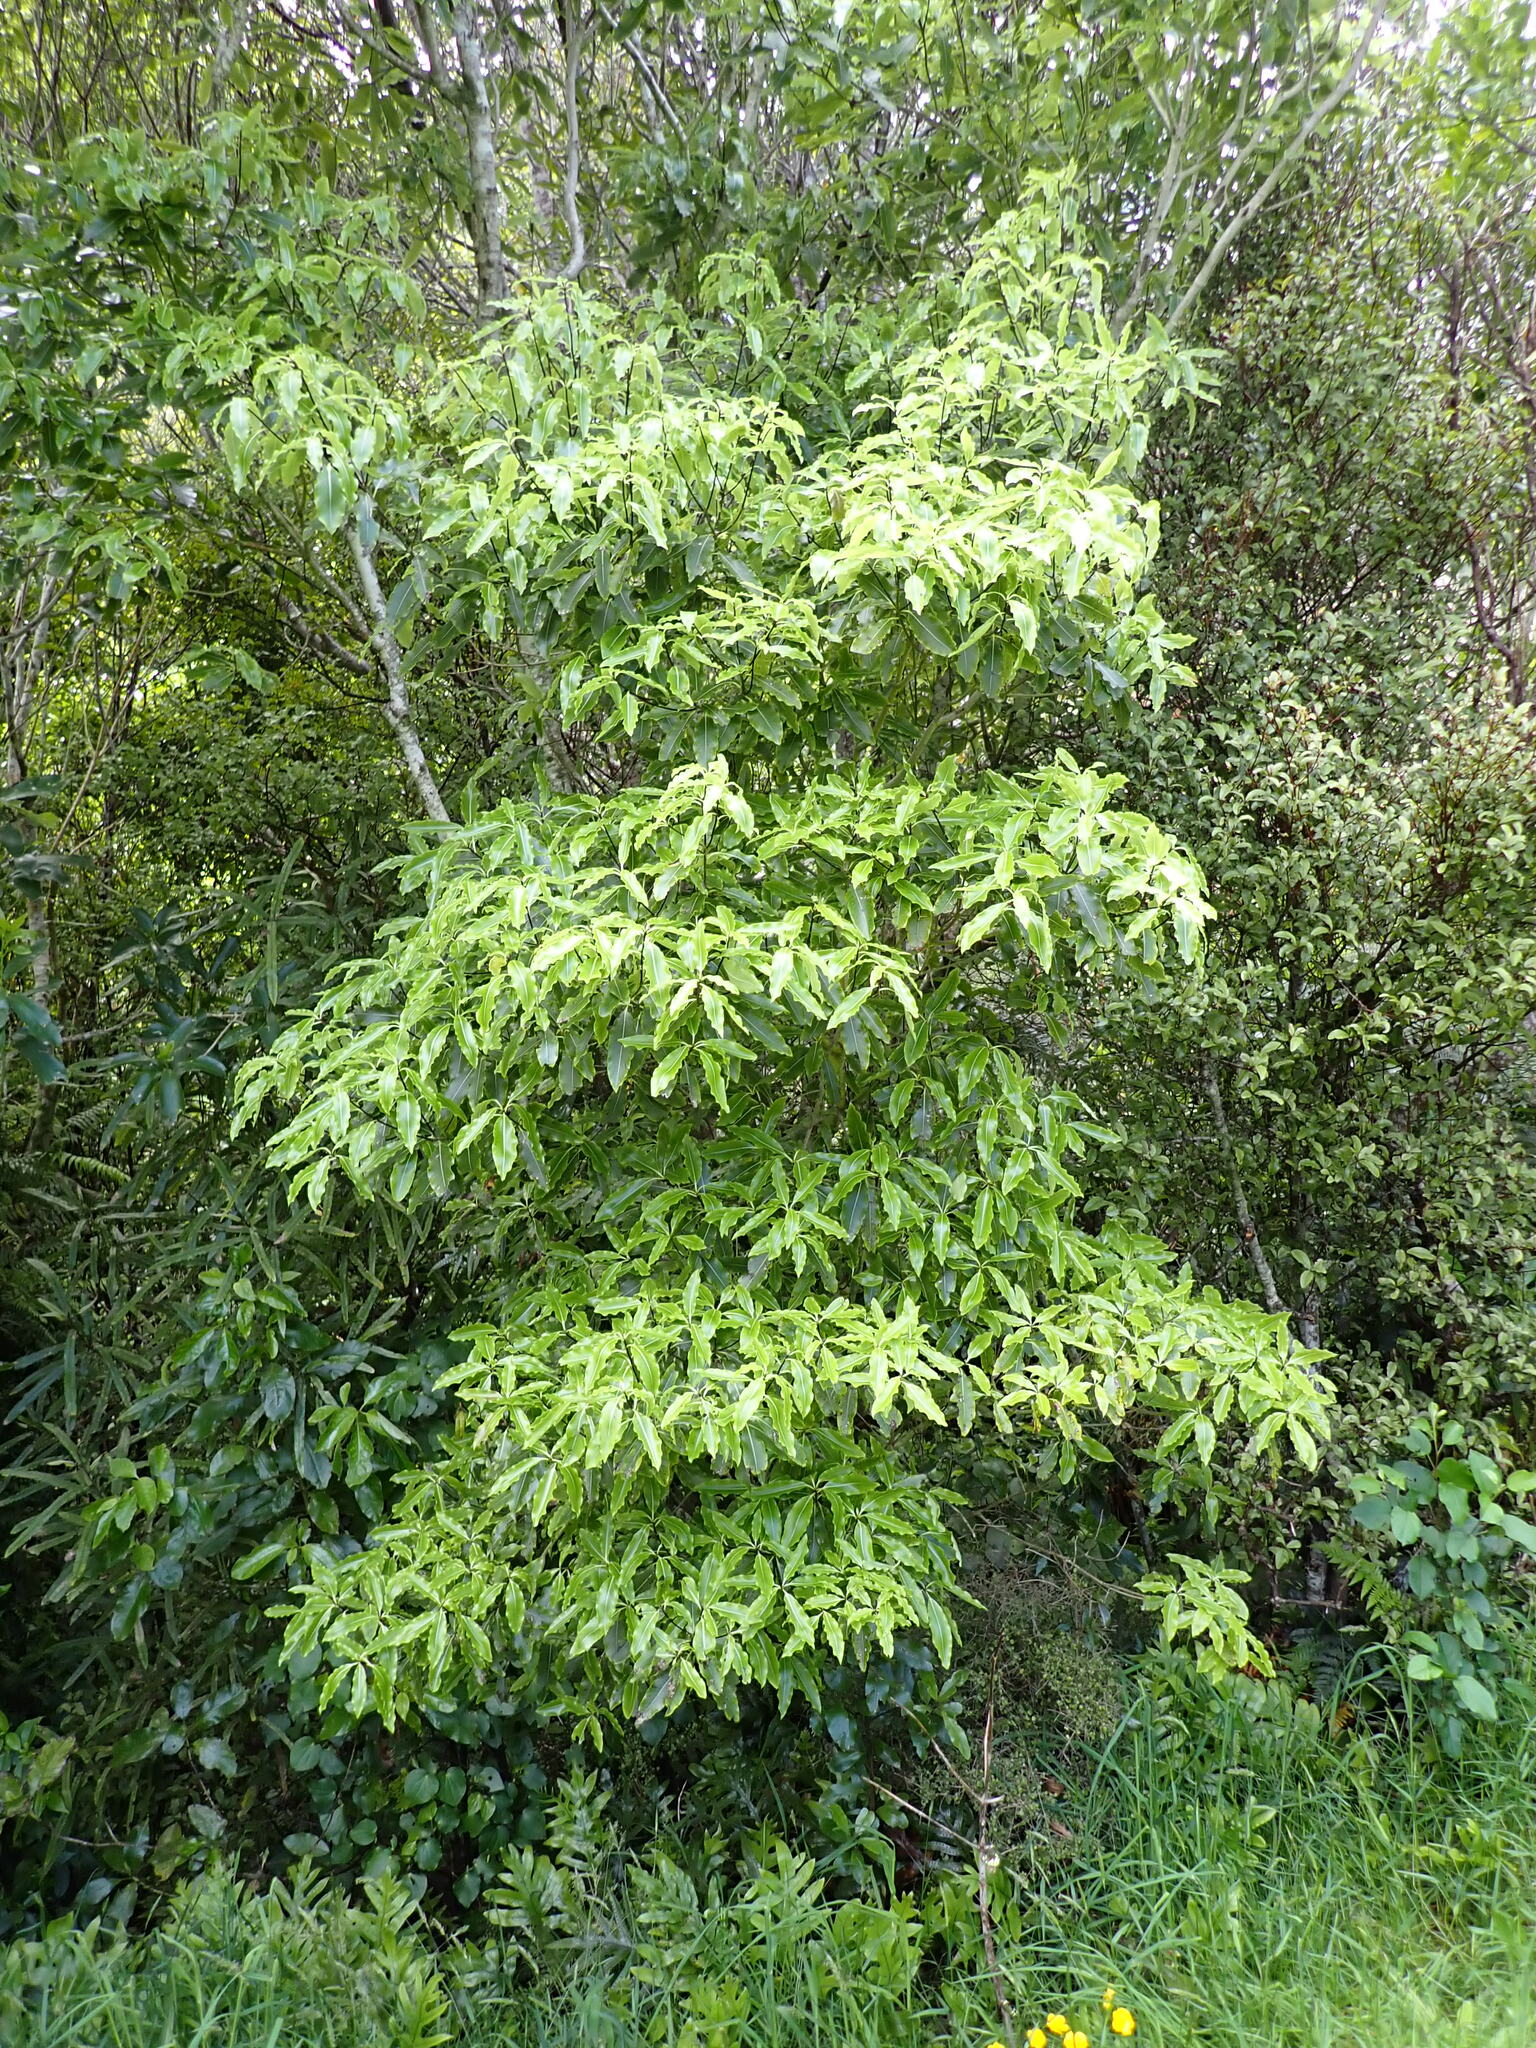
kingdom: Plantae
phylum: Tracheophyta
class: Magnoliopsida
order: Apiales
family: Pittosporaceae
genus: Pittosporum
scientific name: Pittosporum eugenioides
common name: Lemonwood
